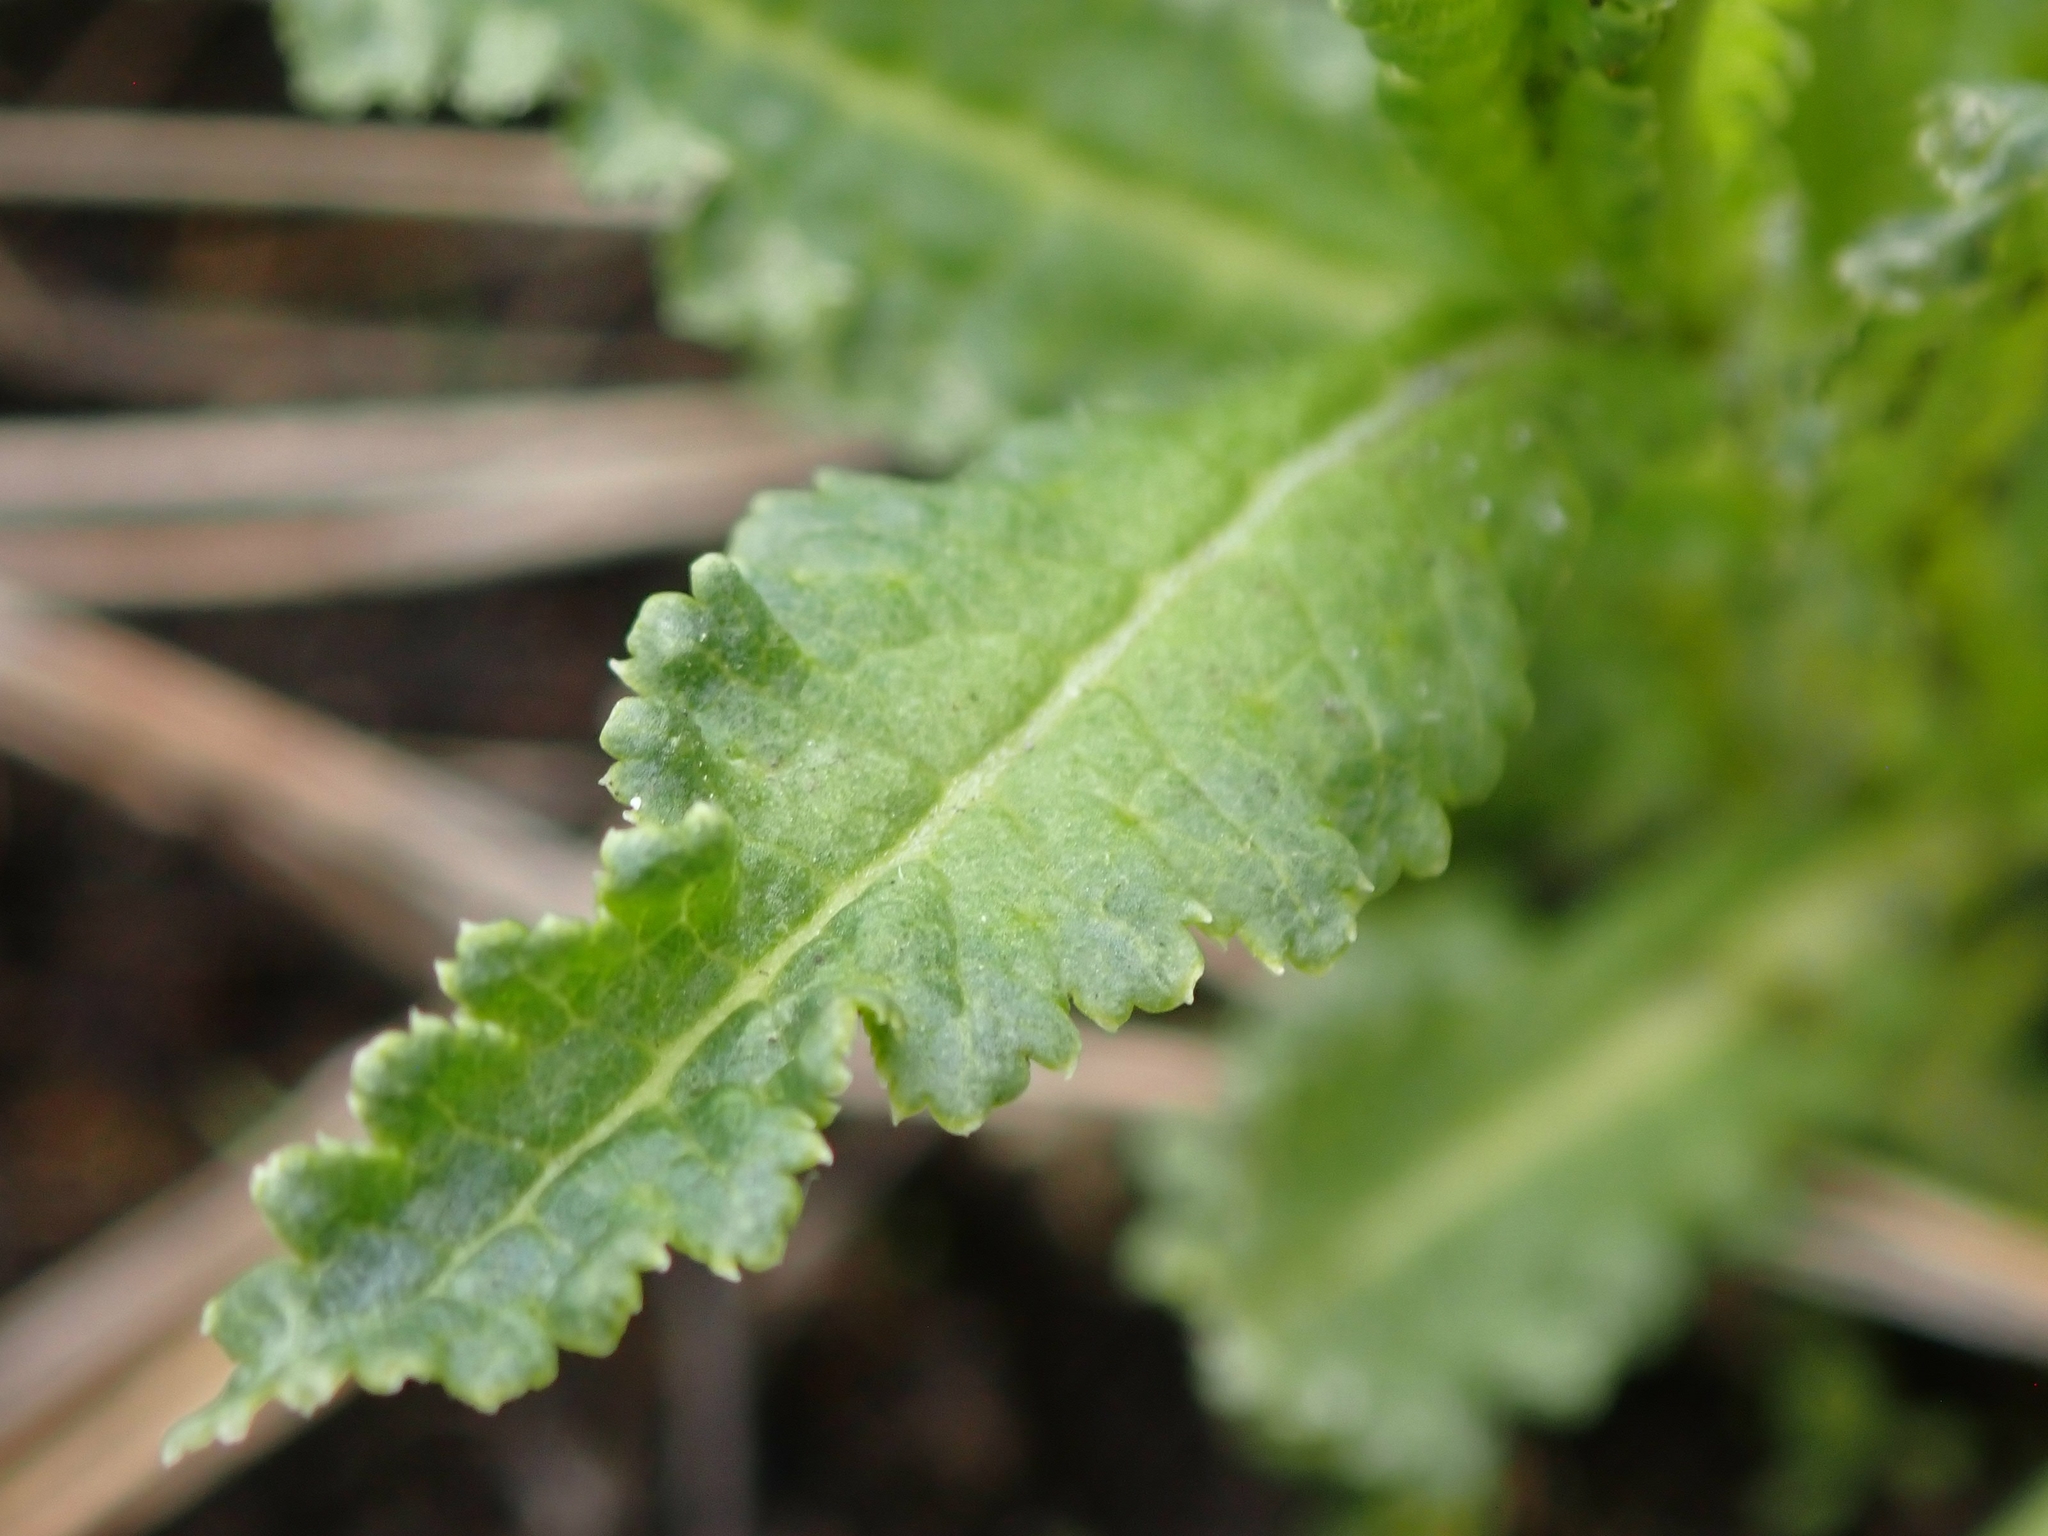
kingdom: Plantae
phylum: Tracheophyta
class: Magnoliopsida
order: Lamiales
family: Orobanchaceae
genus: Pedicularis
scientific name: Pedicularis lanceolata
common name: Swamp lousewort
